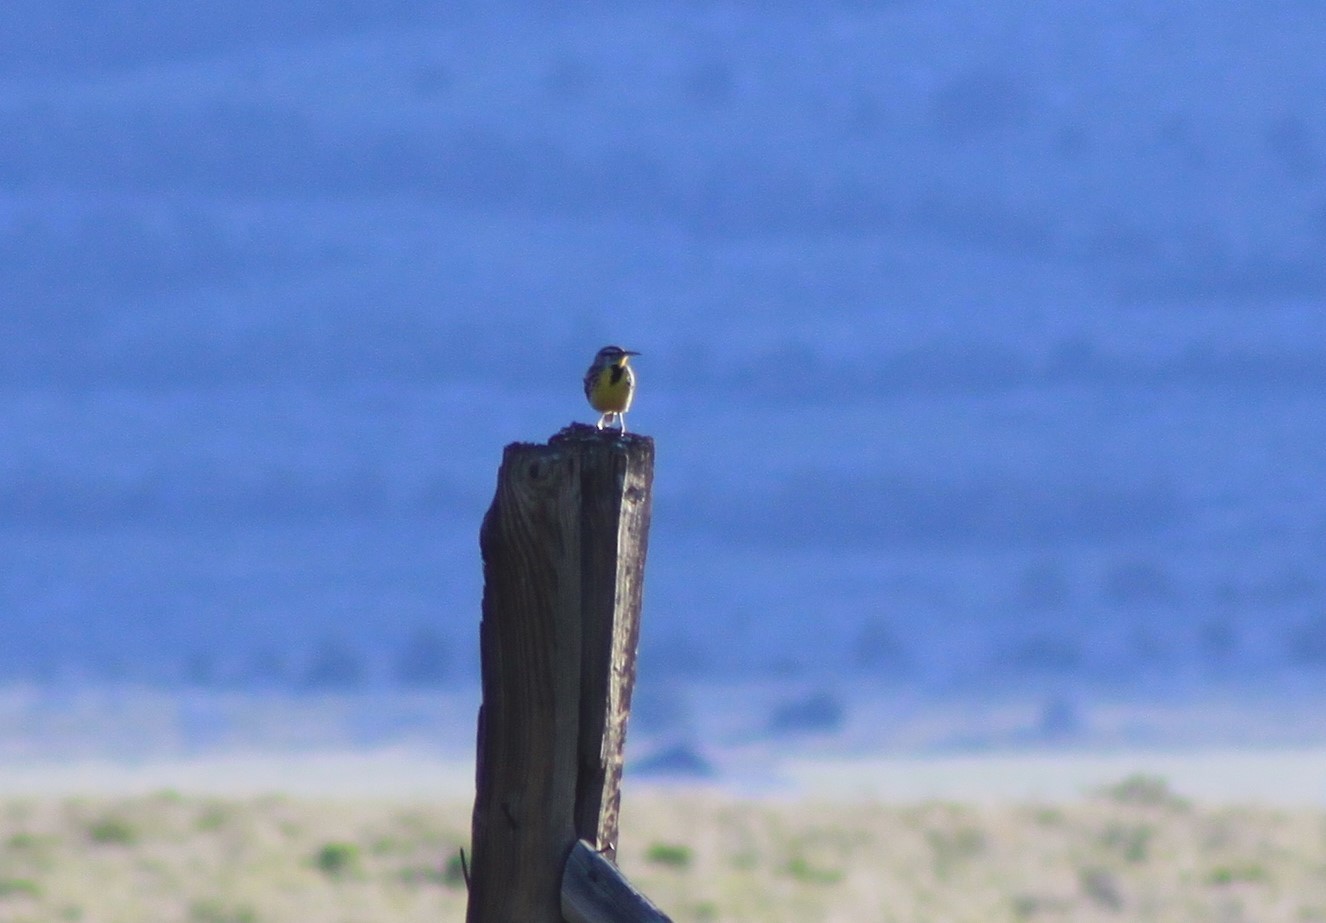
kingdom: Animalia
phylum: Chordata
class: Aves
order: Passeriformes
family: Icteridae
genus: Sturnella
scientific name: Sturnella neglecta
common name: Western meadowlark
